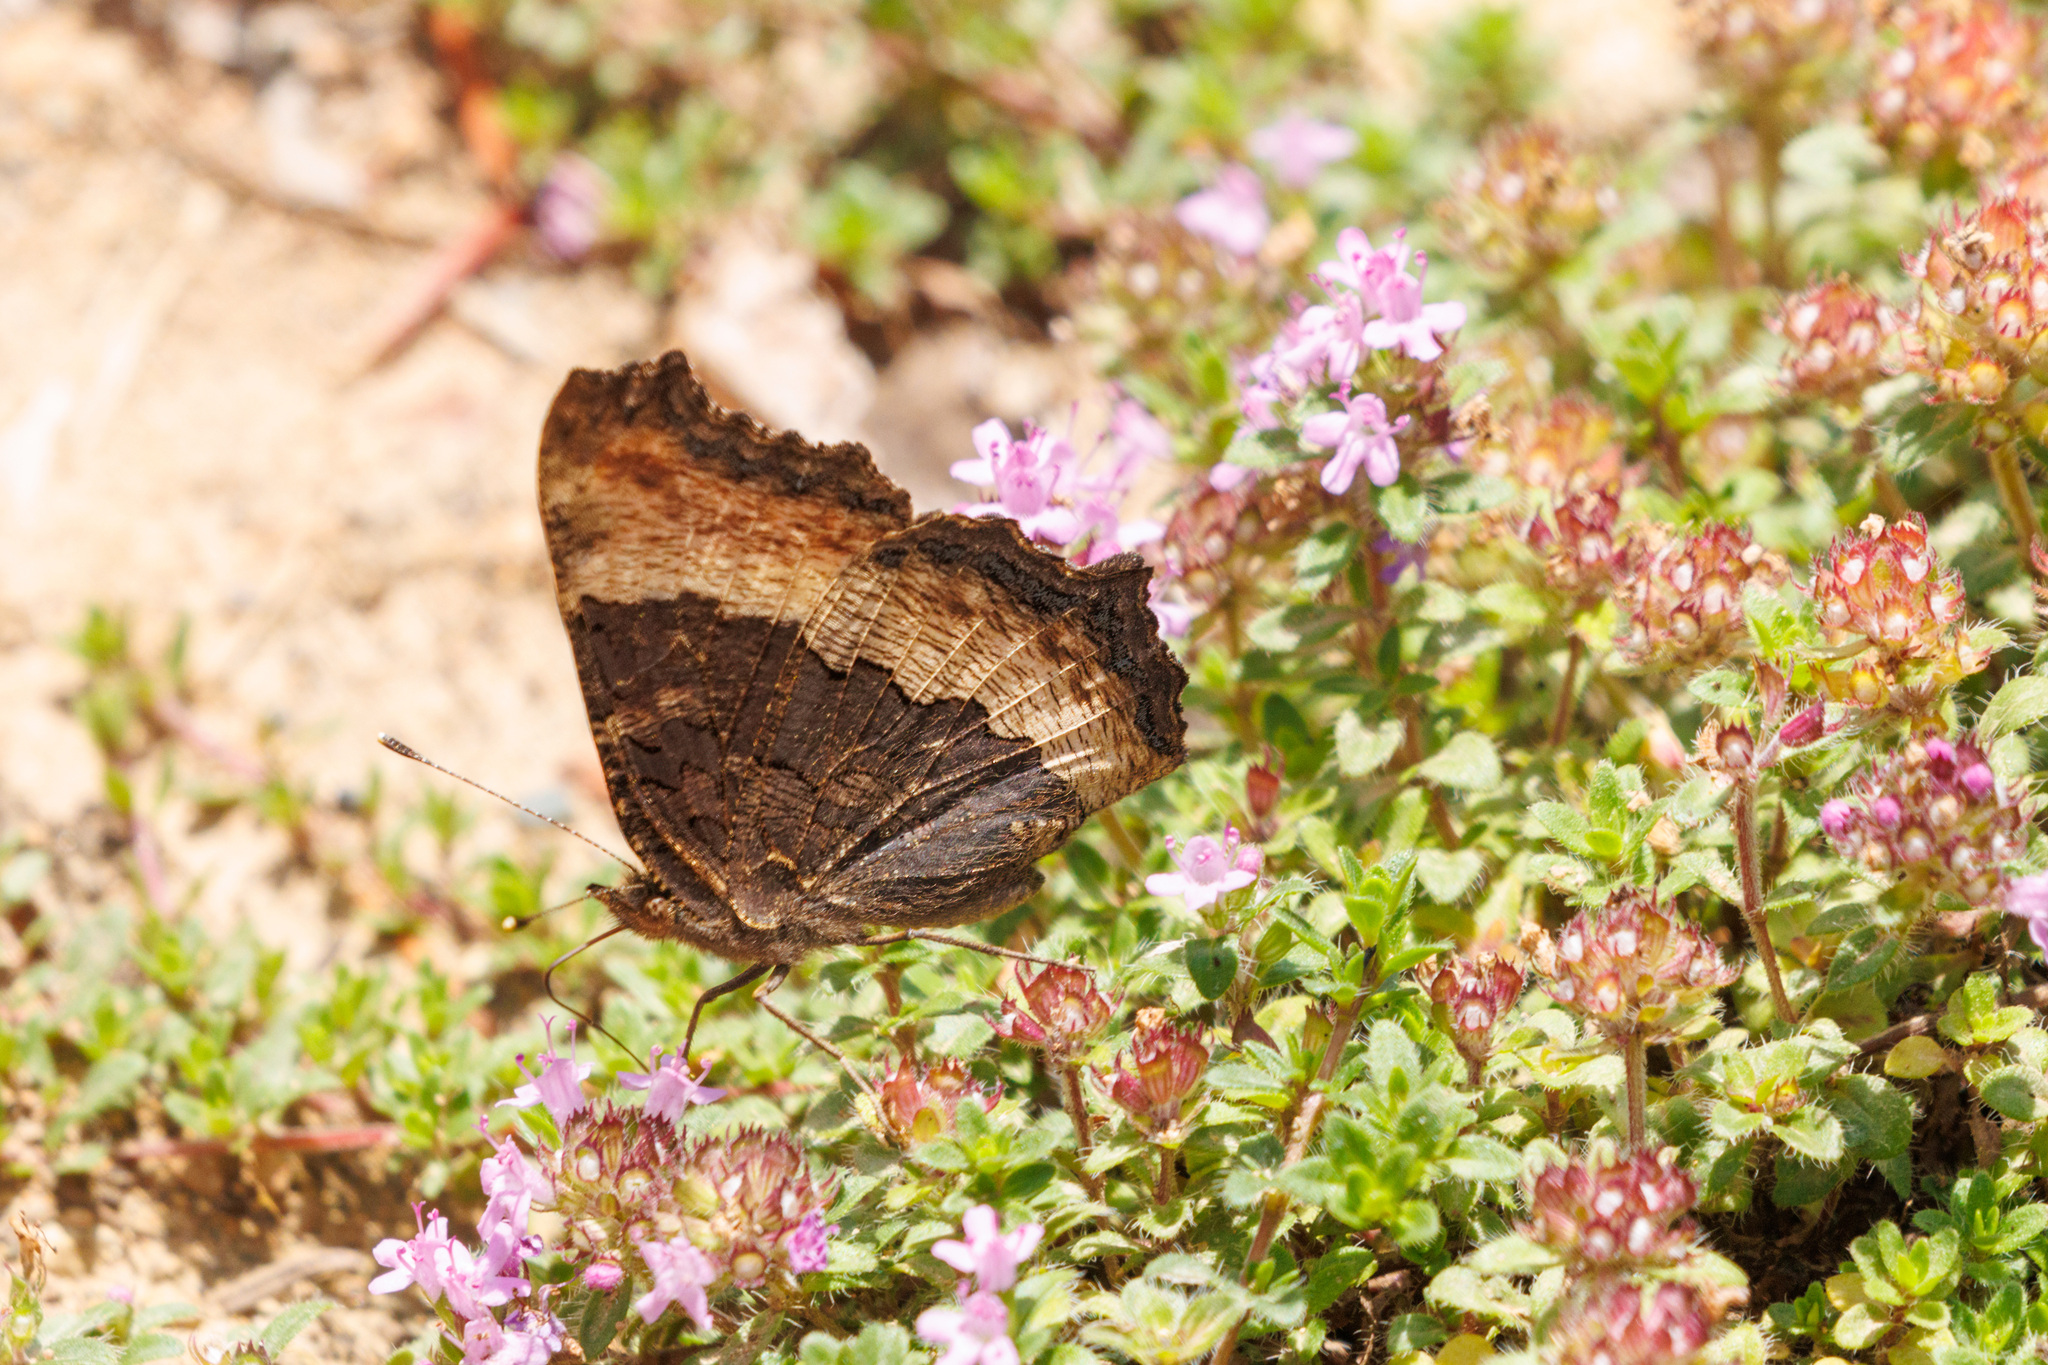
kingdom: Animalia
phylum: Arthropoda
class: Insecta
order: Lepidoptera
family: Nymphalidae
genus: Aglais
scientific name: Aglais milberti
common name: Milbert's tortoiseshell
